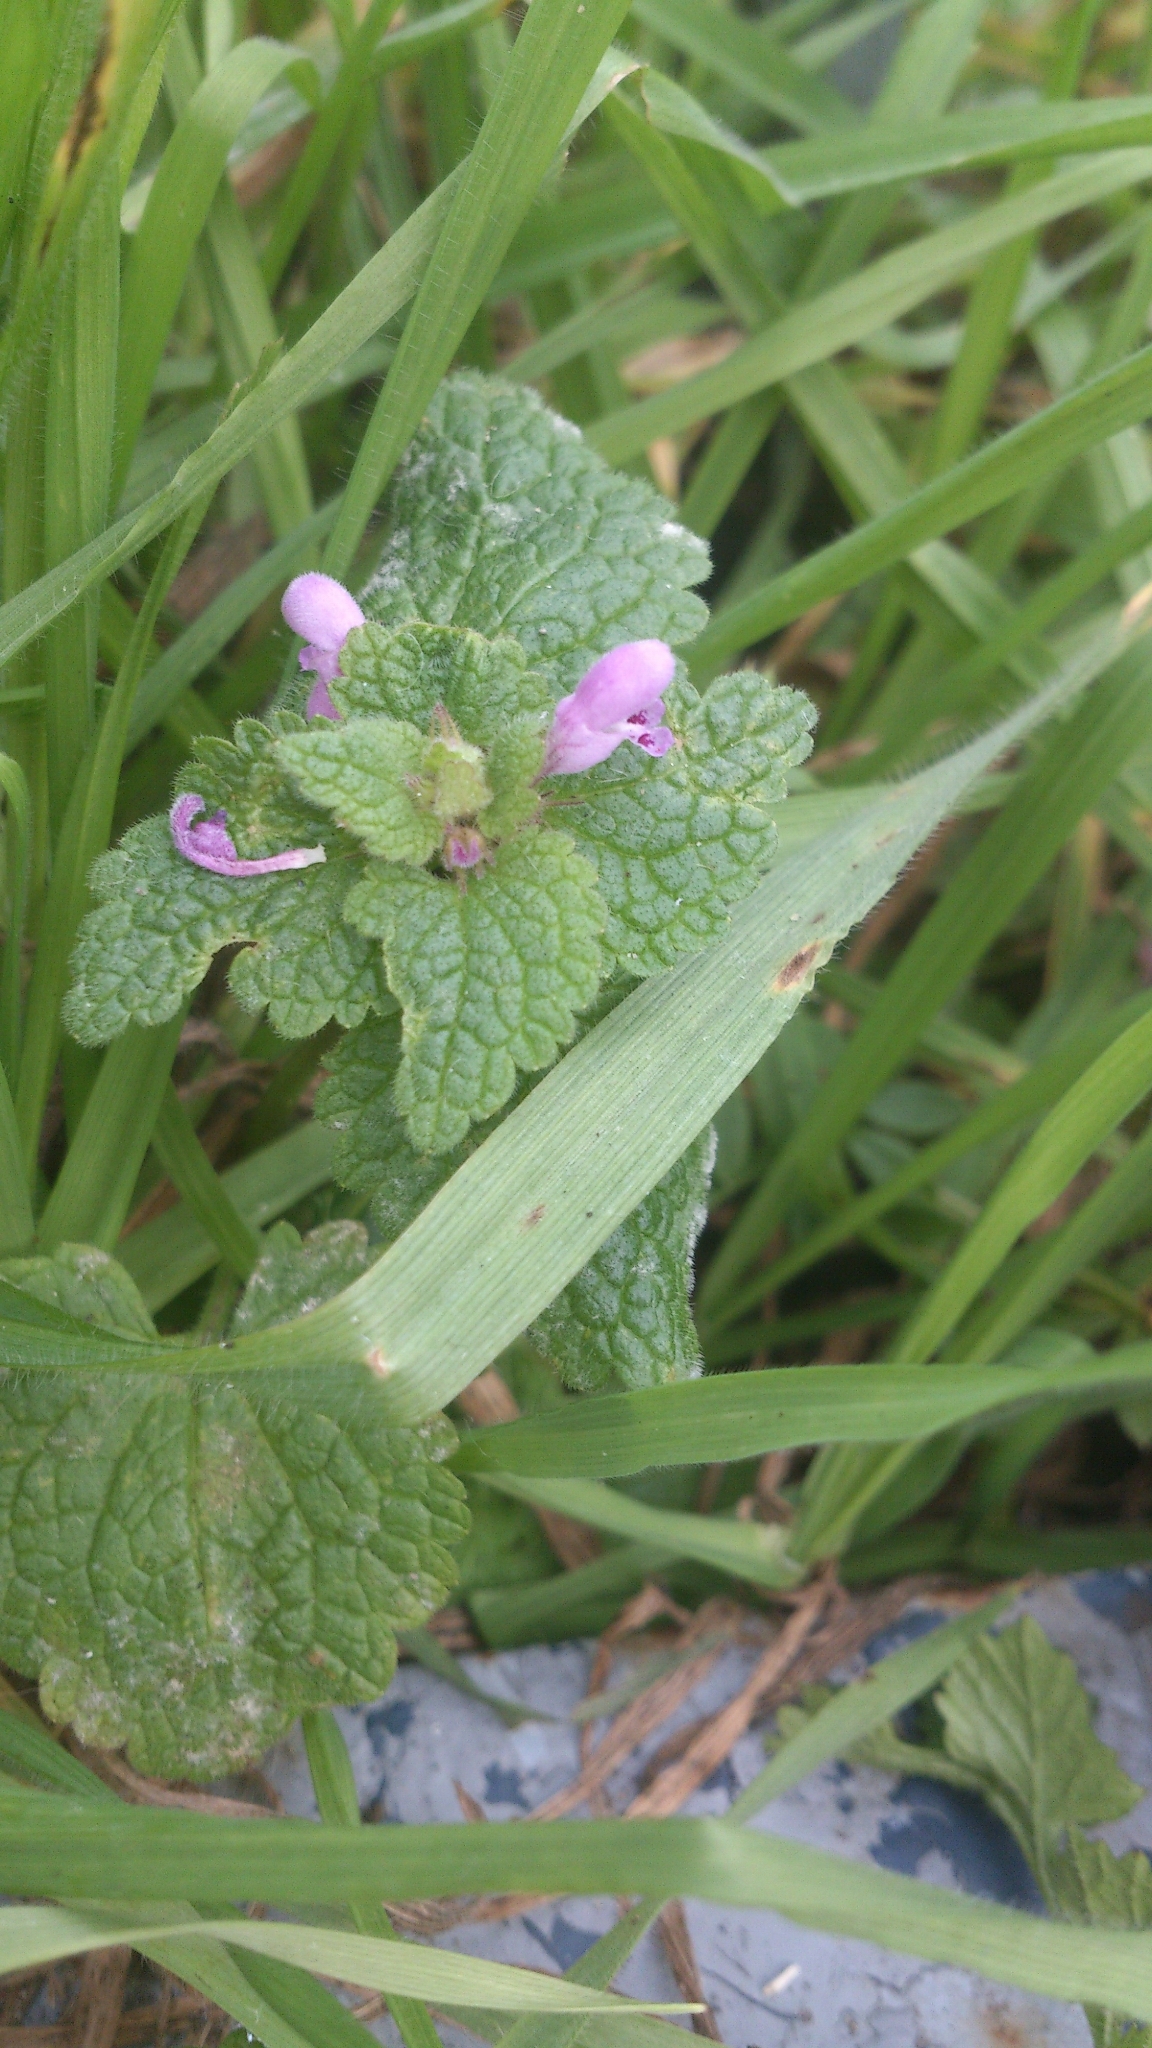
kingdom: Plantae
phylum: Tracheophyta
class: Magnoliopsida
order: Lamiales
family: Lamiaceae
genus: Lamium
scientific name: Lamium purpureum
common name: Red dead-nettle
